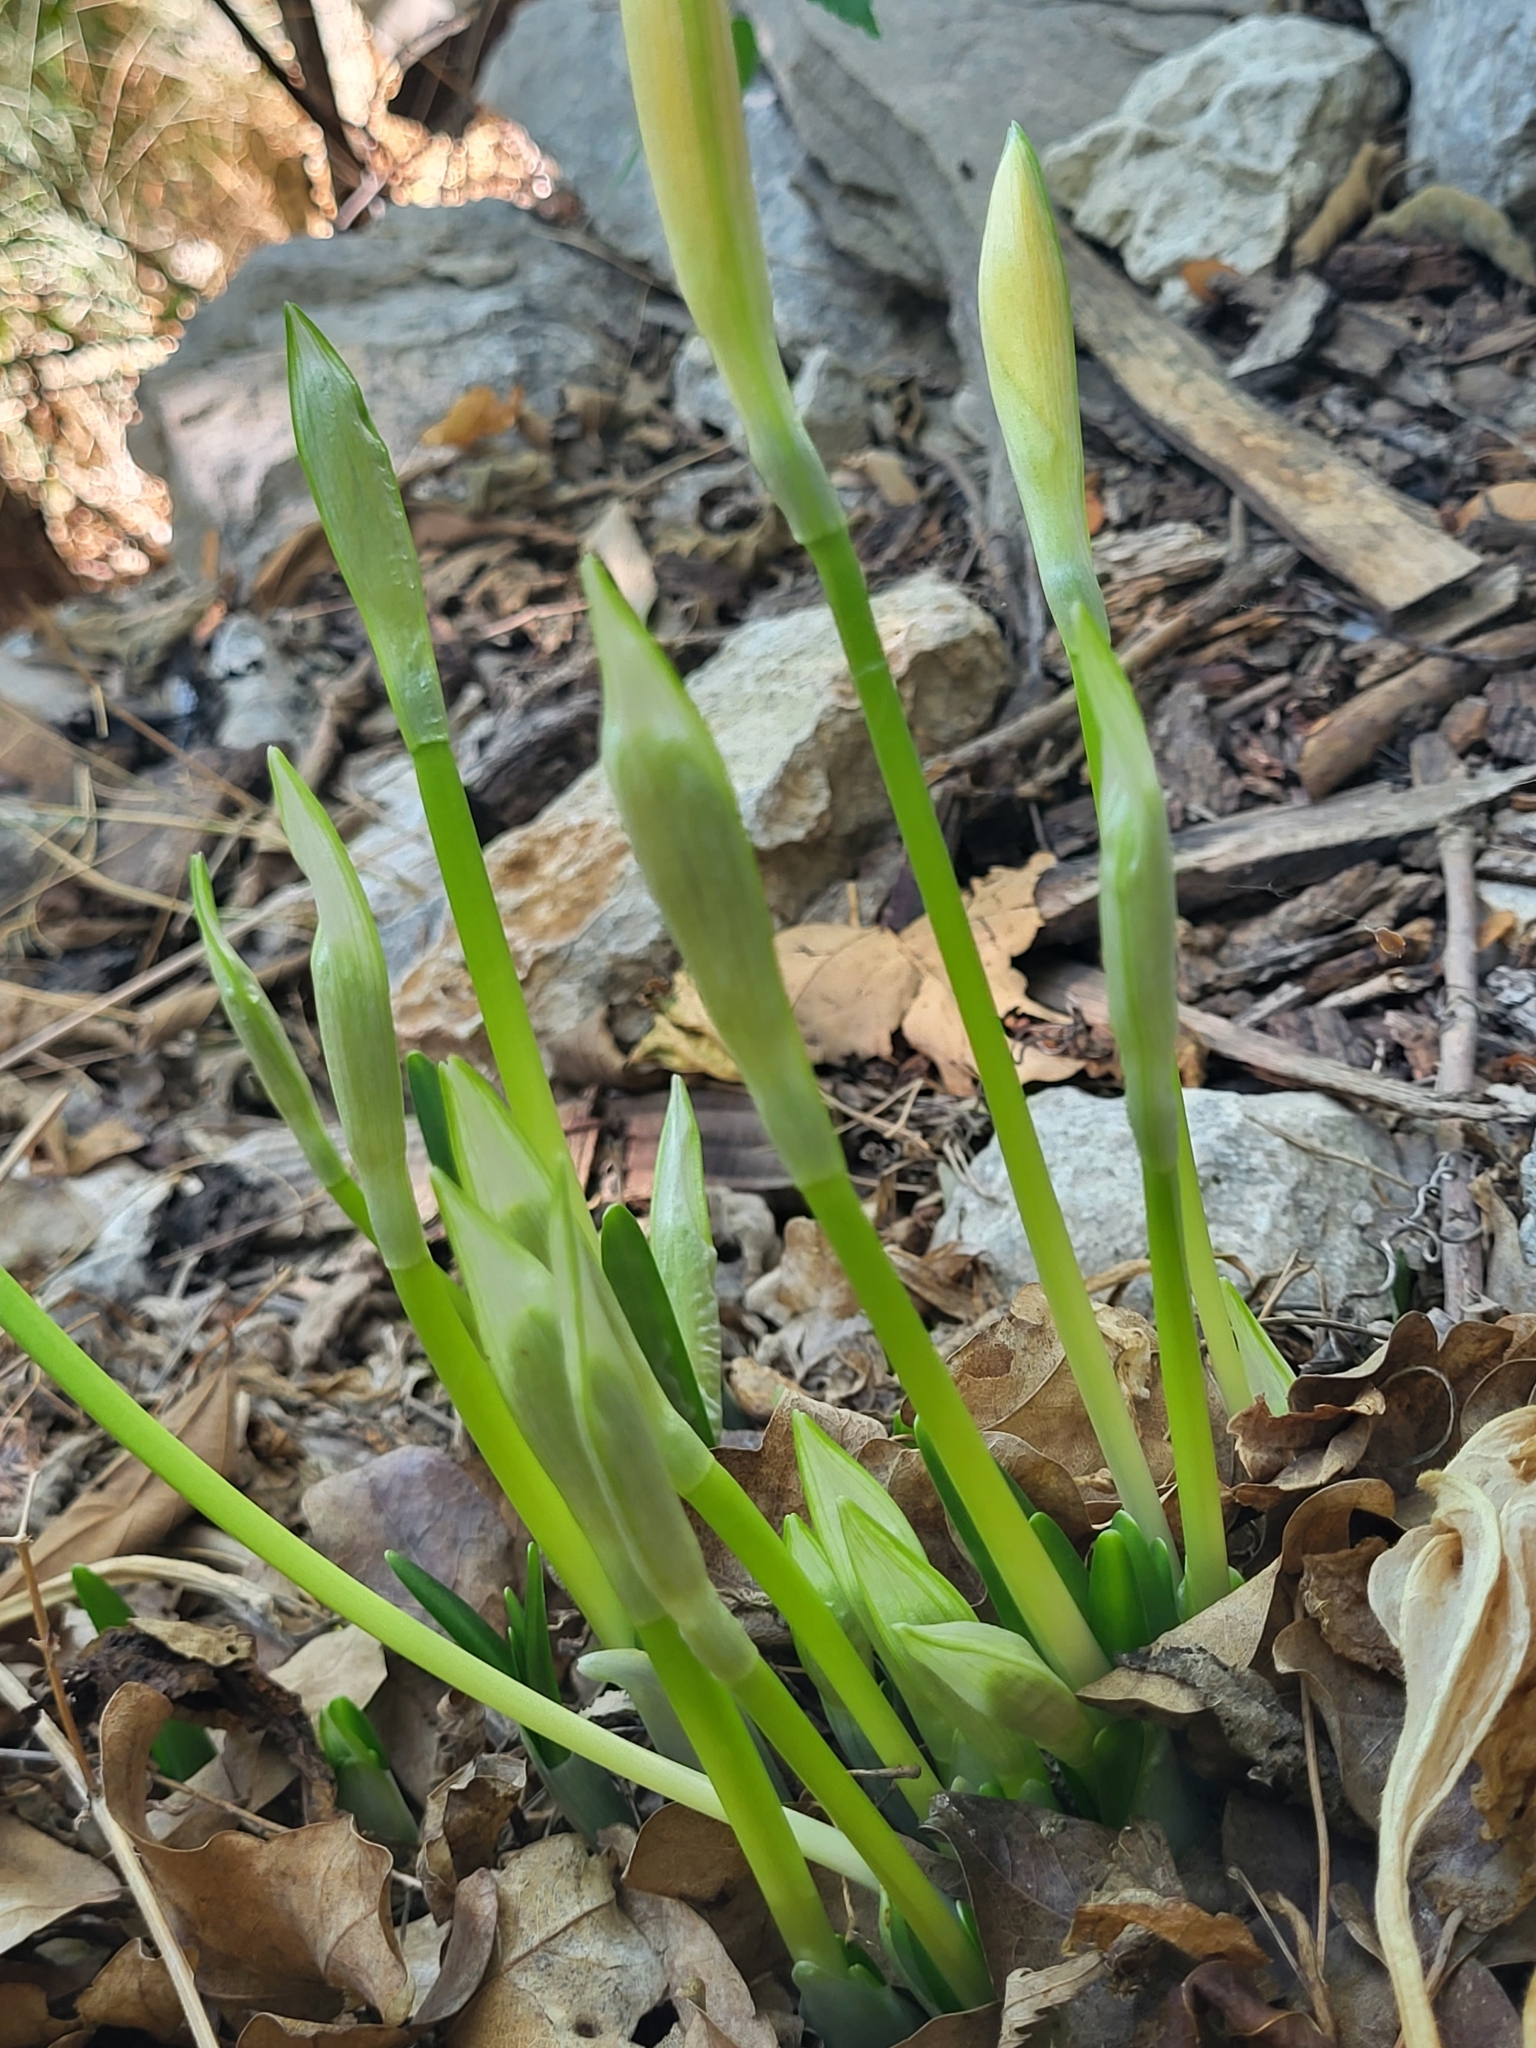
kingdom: Plantae
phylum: Tracheophyta
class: Liliopsida
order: Asparagales
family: Amaryllidaceae
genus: Sternbergia
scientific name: Sternbergia lutea
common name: Winter daffodil
